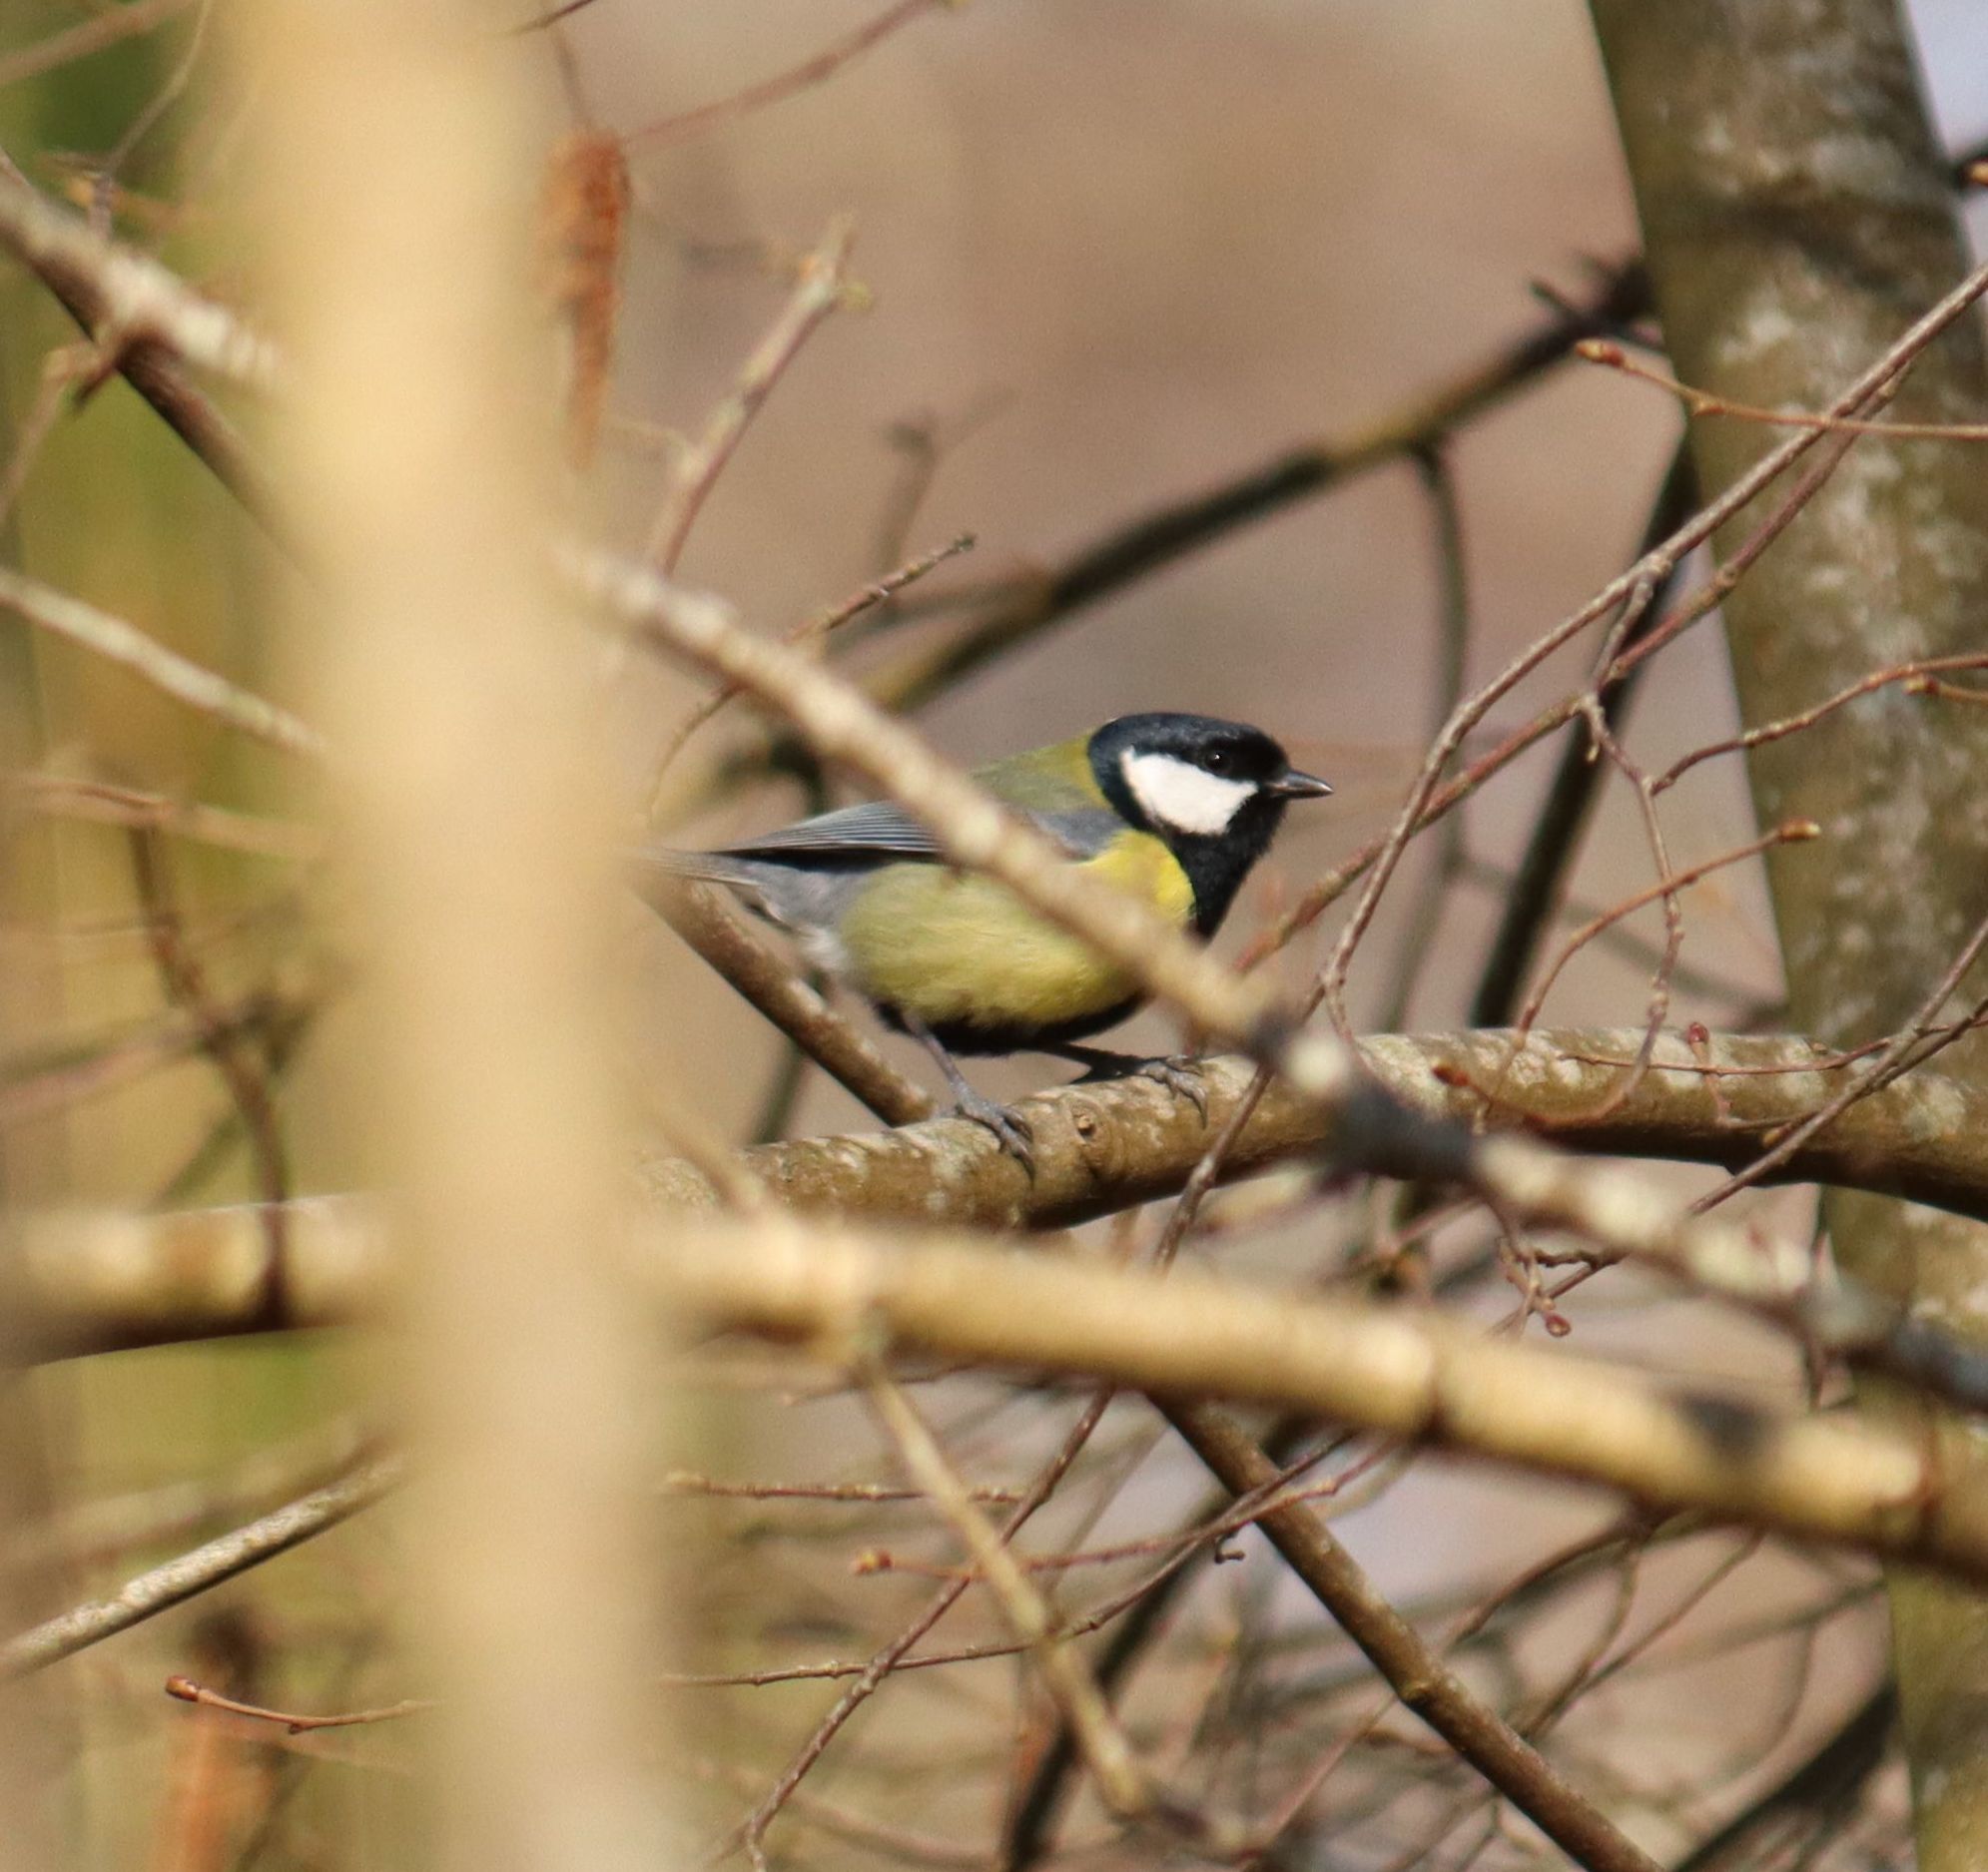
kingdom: Animalia
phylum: Chordata
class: Aves
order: Passeriformes
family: Paridae
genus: Parus
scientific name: Parus major
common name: Great tit
